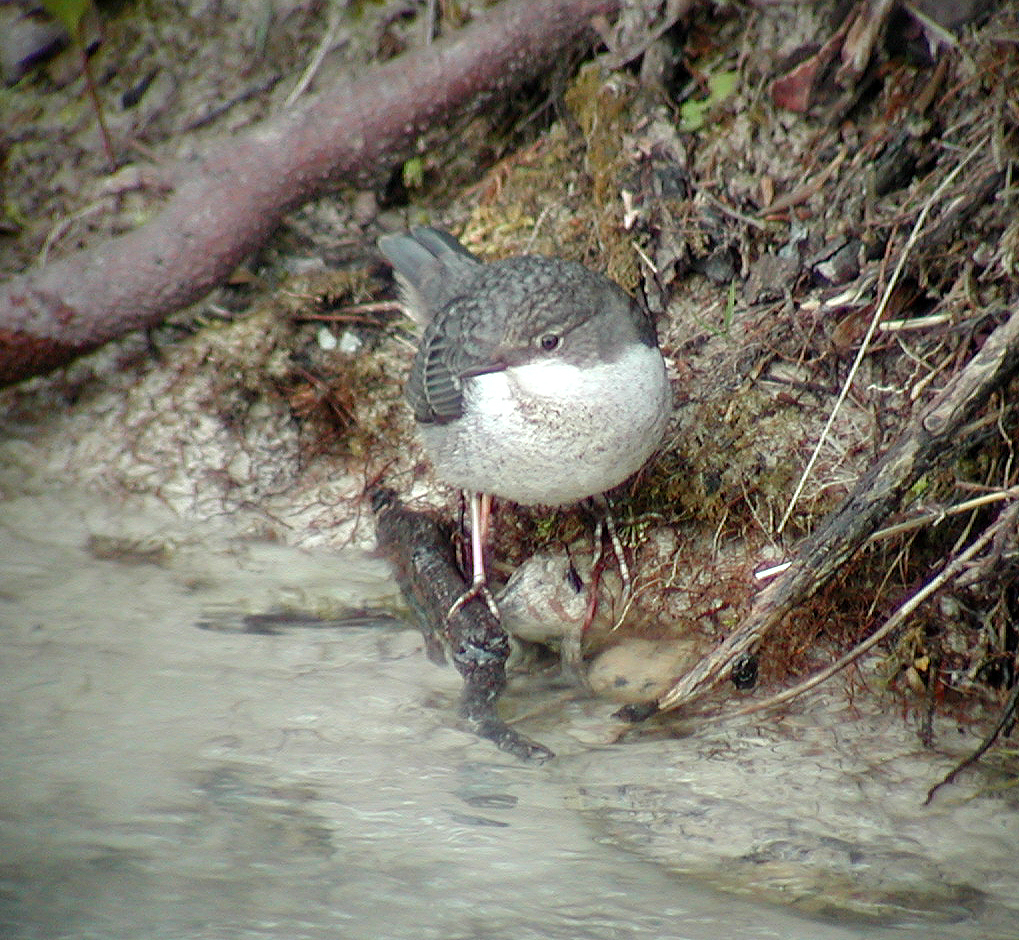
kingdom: Animalia
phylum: Chordata
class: Aves
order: Passeriformes
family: Cinclidae
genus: Cinclus
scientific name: Cinclus cinclus
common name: White-throated dipper
